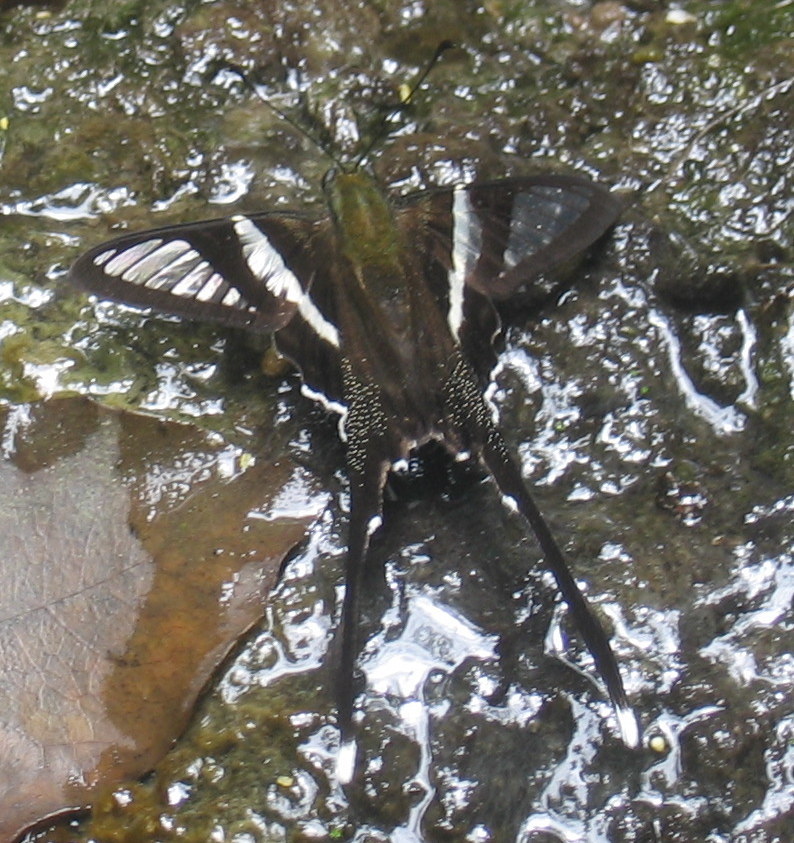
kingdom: Animalia
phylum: Arthropoda
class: Insecta
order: Lepidoptera
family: Papilionidae
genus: Lamproptera
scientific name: Lamproptera curius
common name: White dragontail
